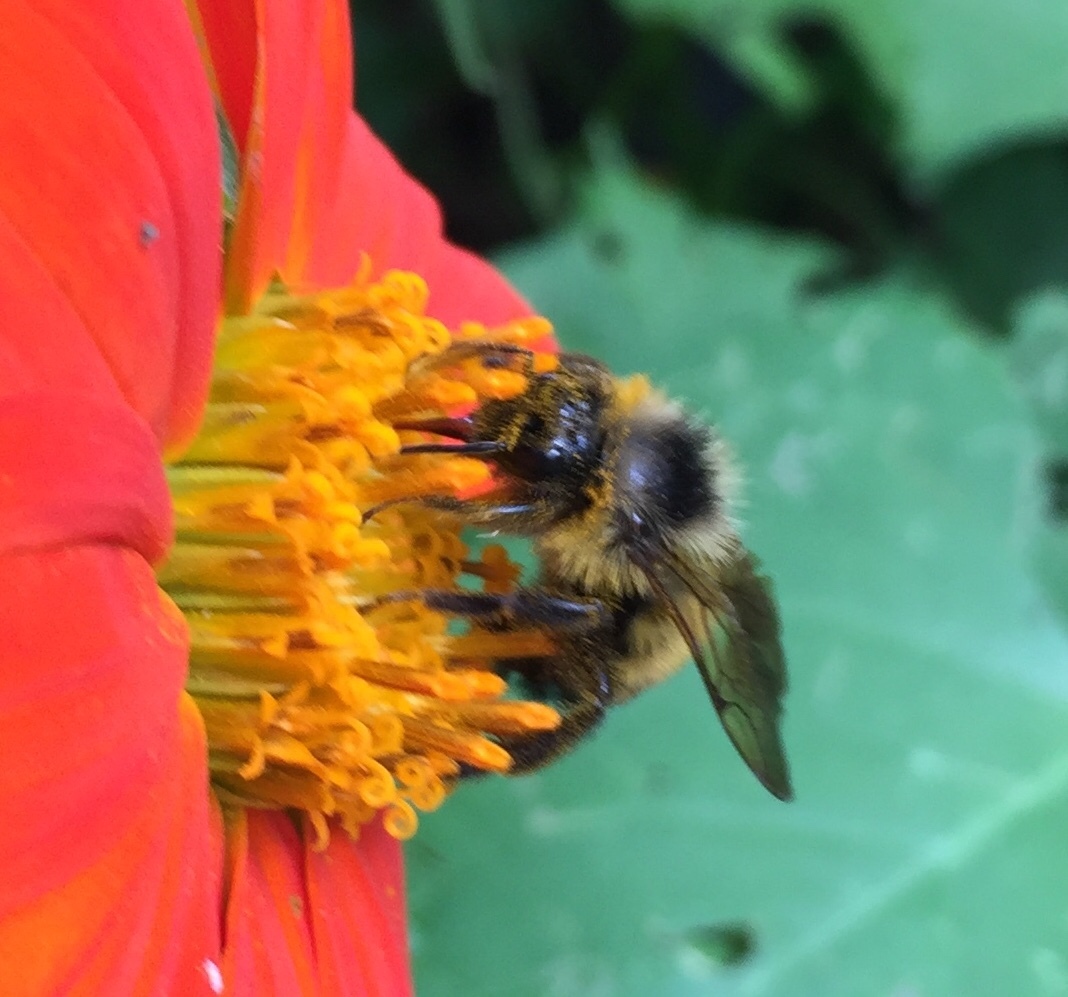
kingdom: Animalia
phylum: Arthropoda
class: Insecta
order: Hymenoptera
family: Apidae
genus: Bombus
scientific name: Bombus citrinus
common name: Lemon cuckoo bumble bee
